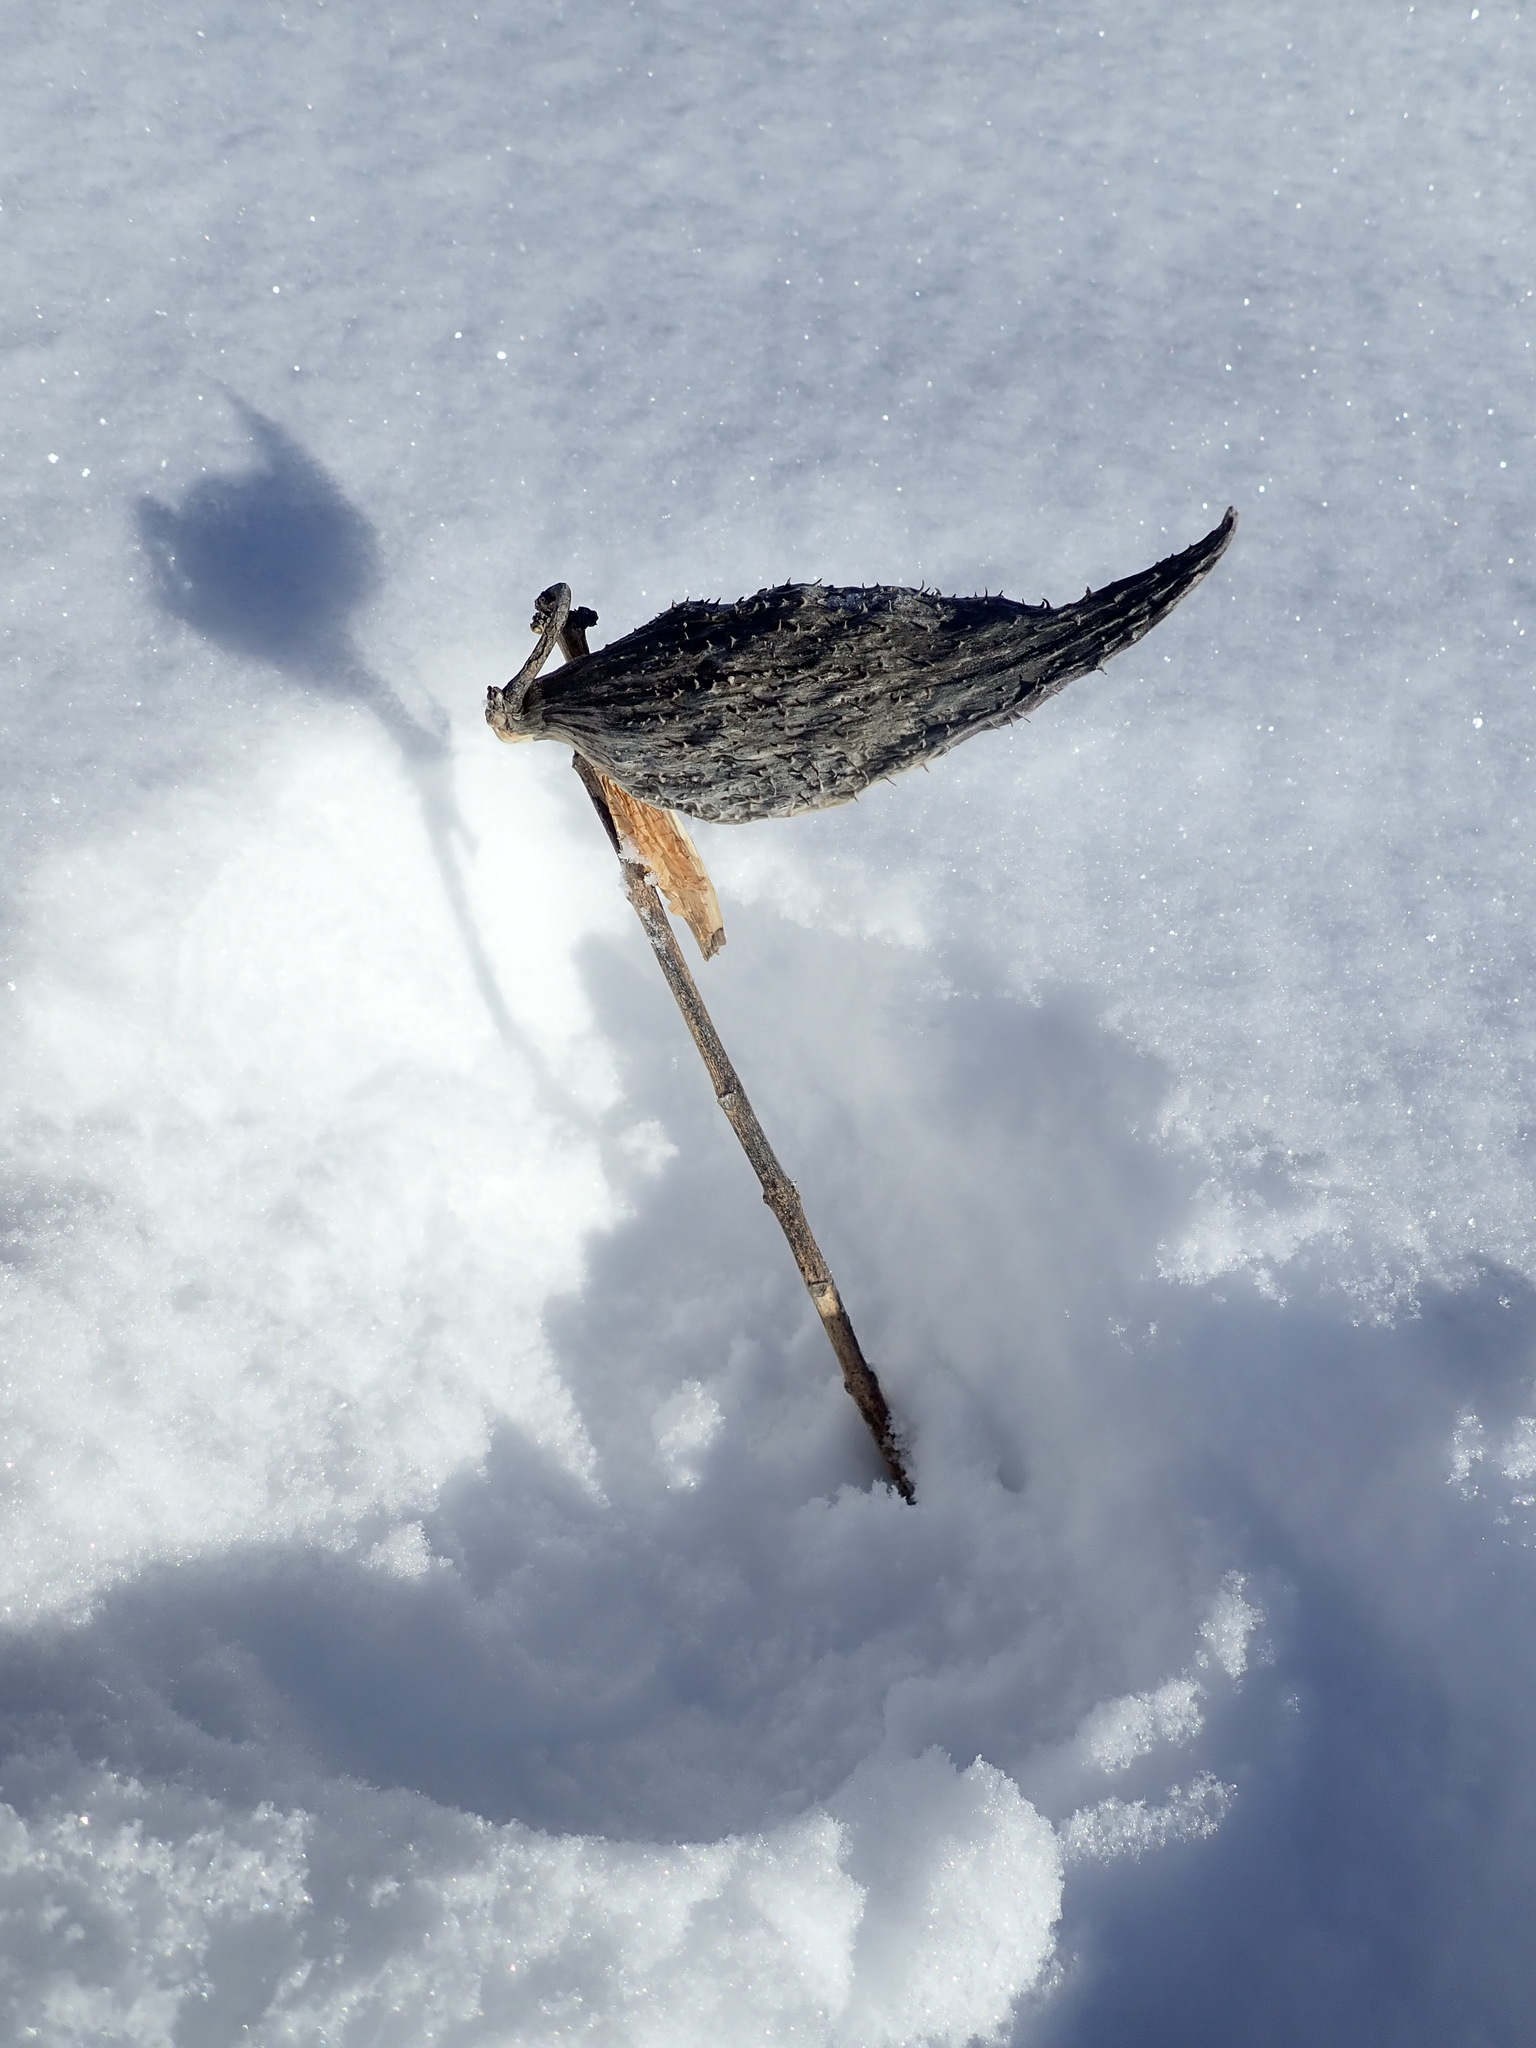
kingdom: Plantae
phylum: Tracheophyta
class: Magnoliopsida
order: Gentianales
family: Apocynaceae
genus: Asclepias
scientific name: Asclepias syriaca
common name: Common milkweed
